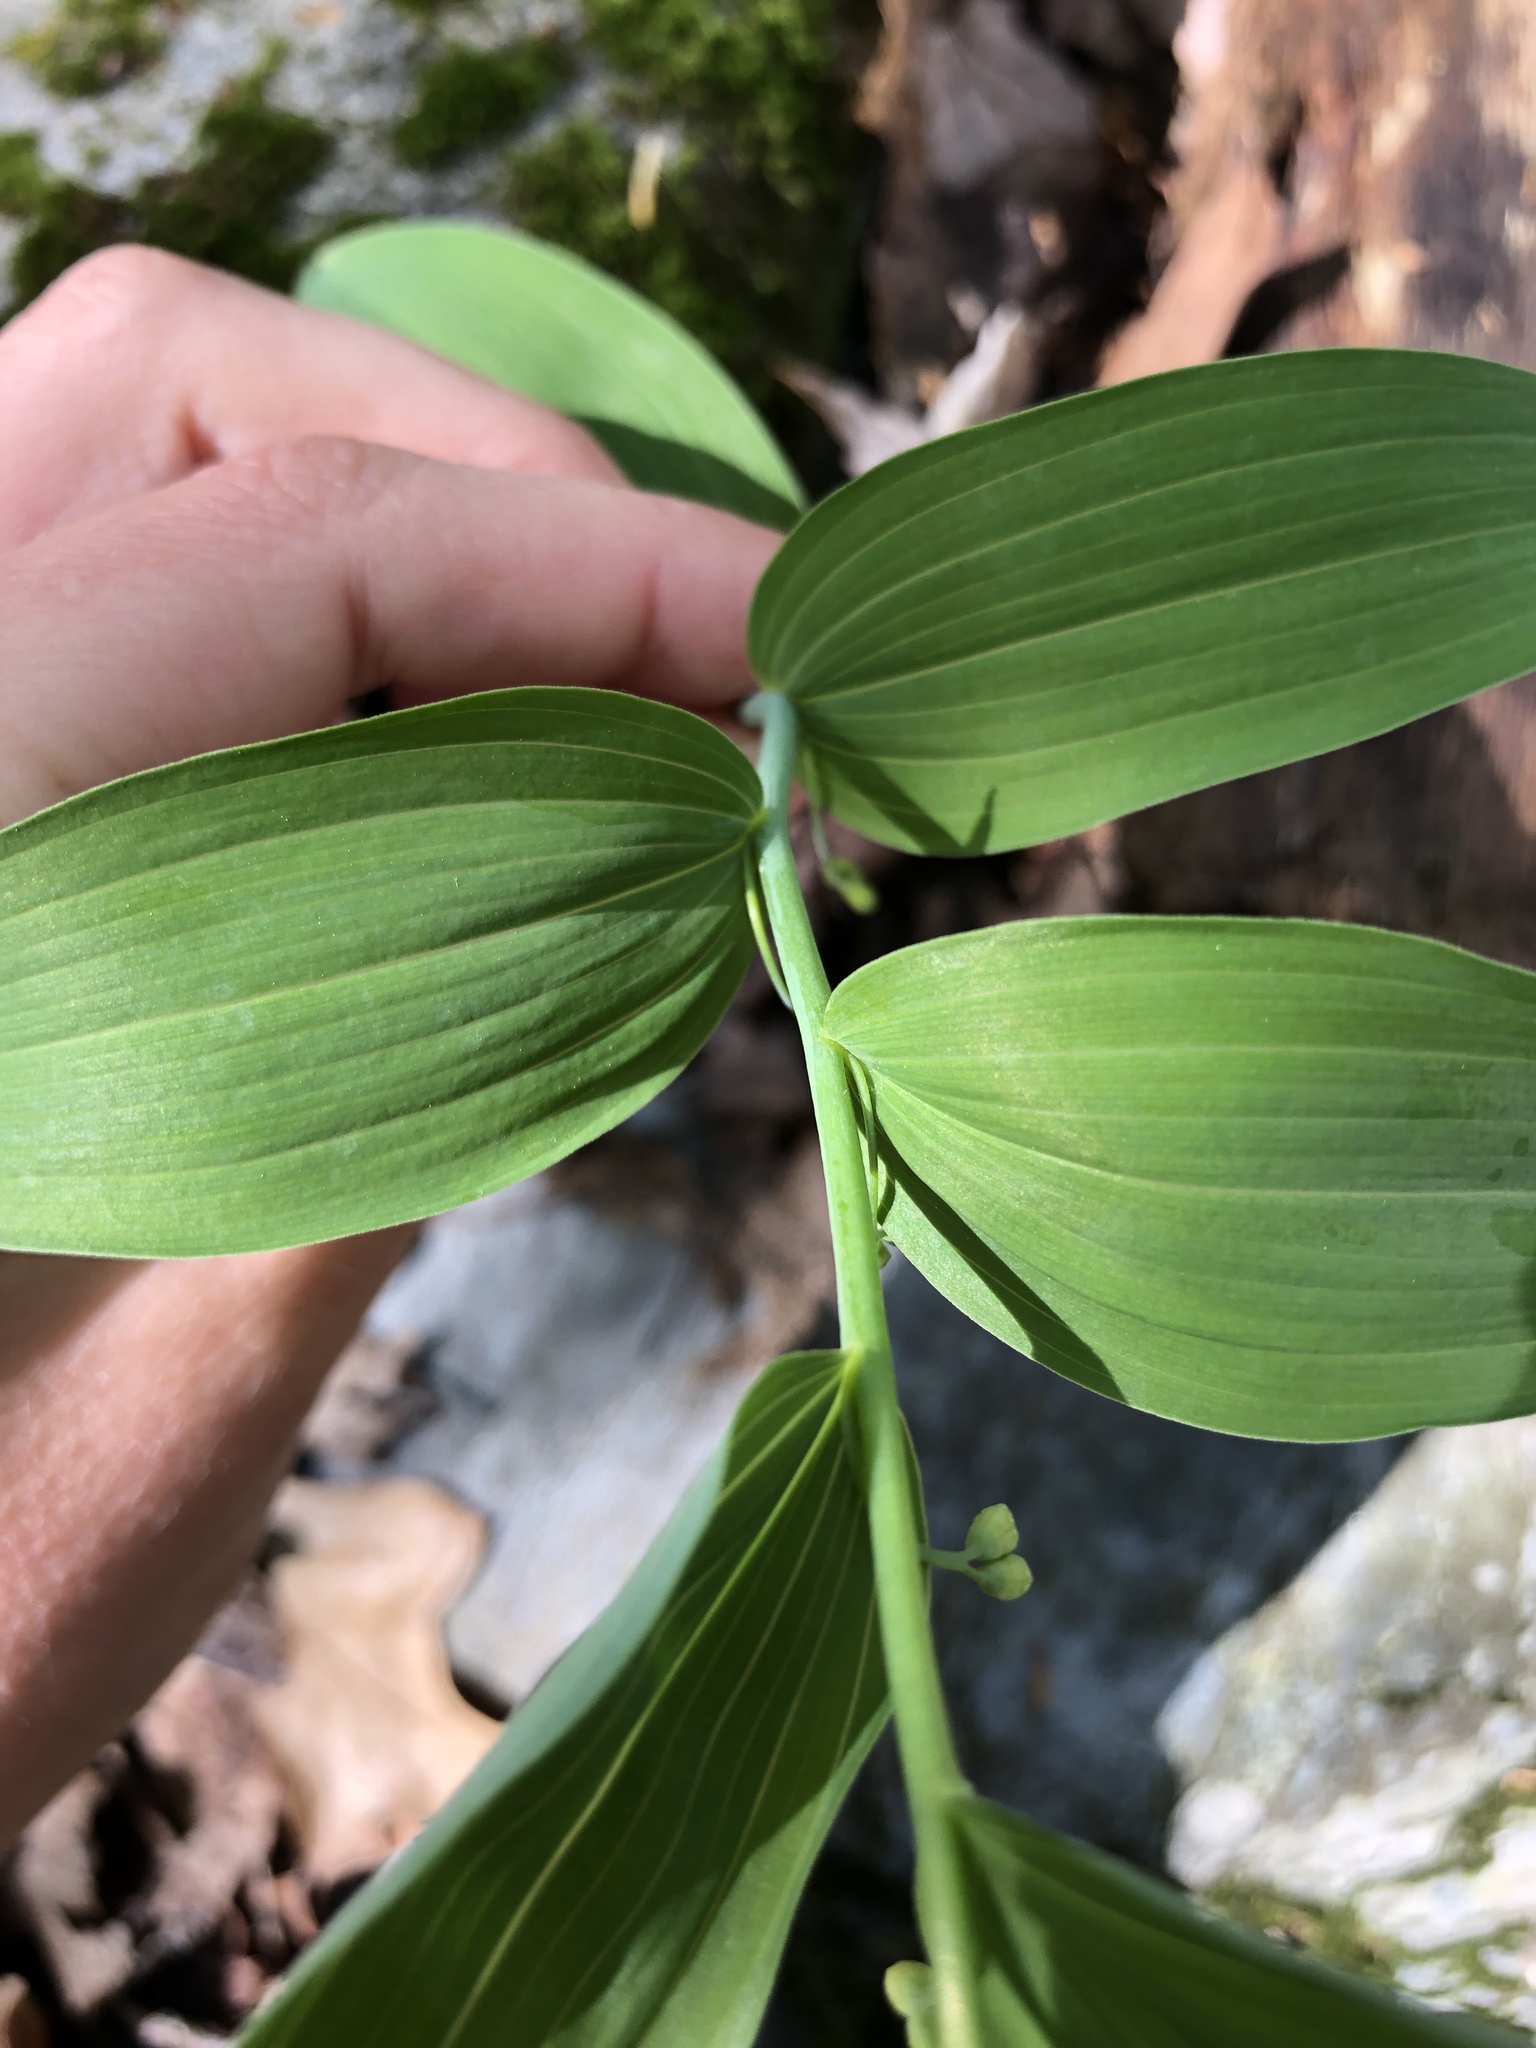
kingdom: Plantae
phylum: Tracheophyta
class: Liliopsida
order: Asparagales
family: Asparagaceae
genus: Polygonatum
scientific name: Polygonatum biflorum
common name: American solomon's-seal
